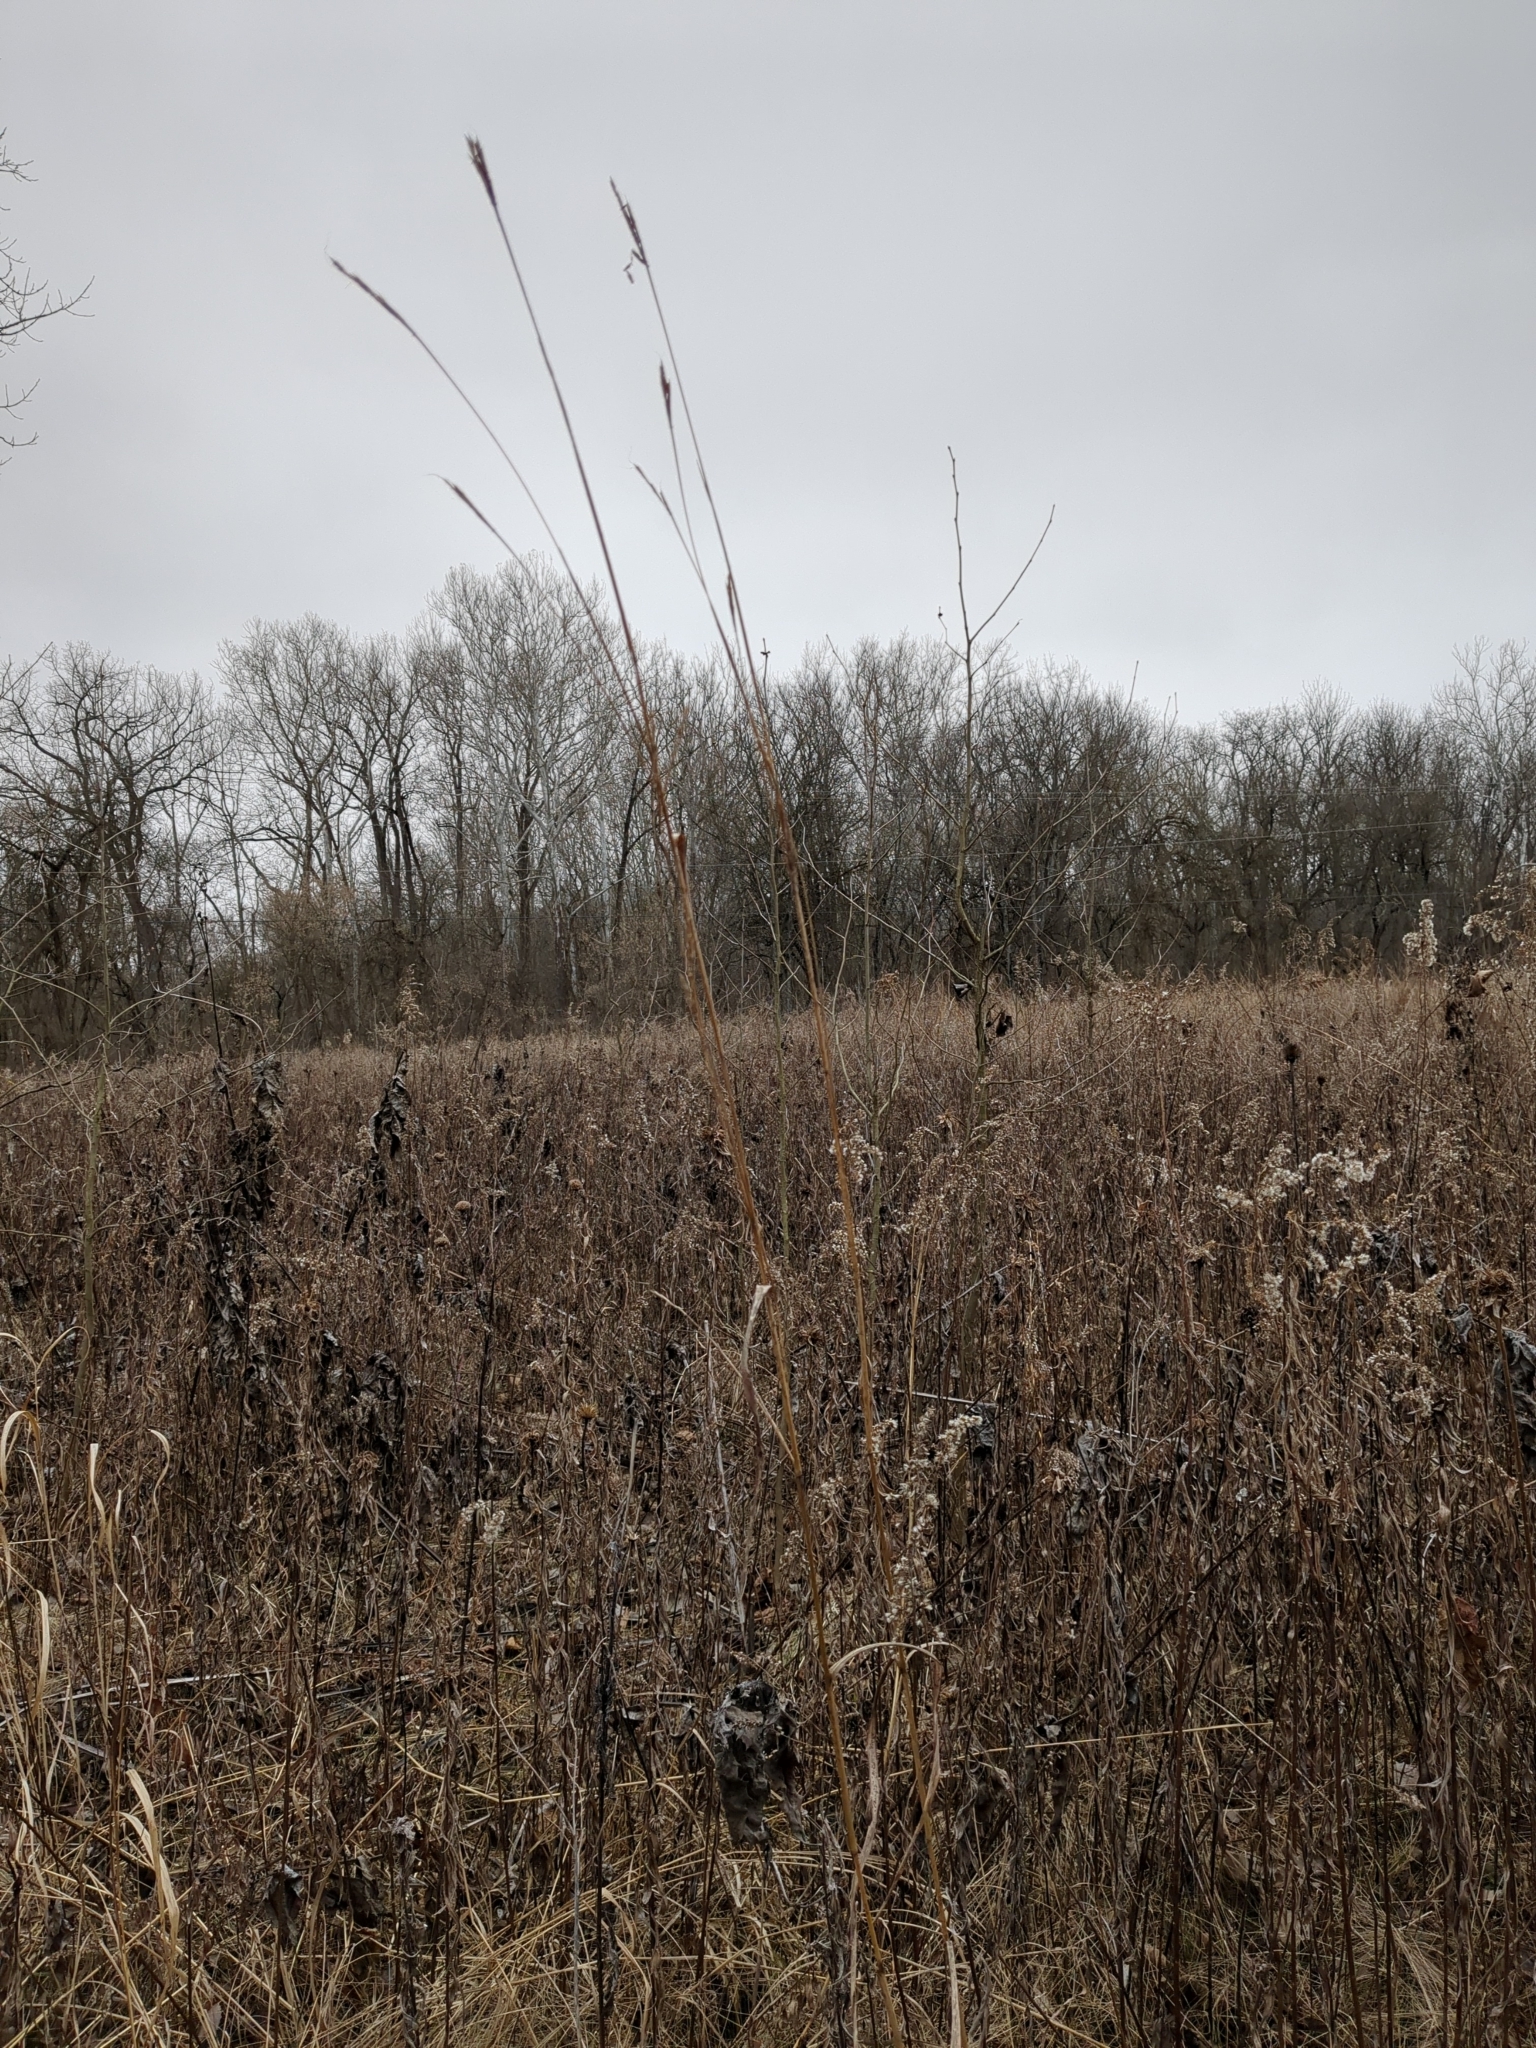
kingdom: Plantae
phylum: Tracheophyta
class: Liliopsida
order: Poales
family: Poaceae
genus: Andropogon
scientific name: Andropogon gerardi
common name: Big bluestem
